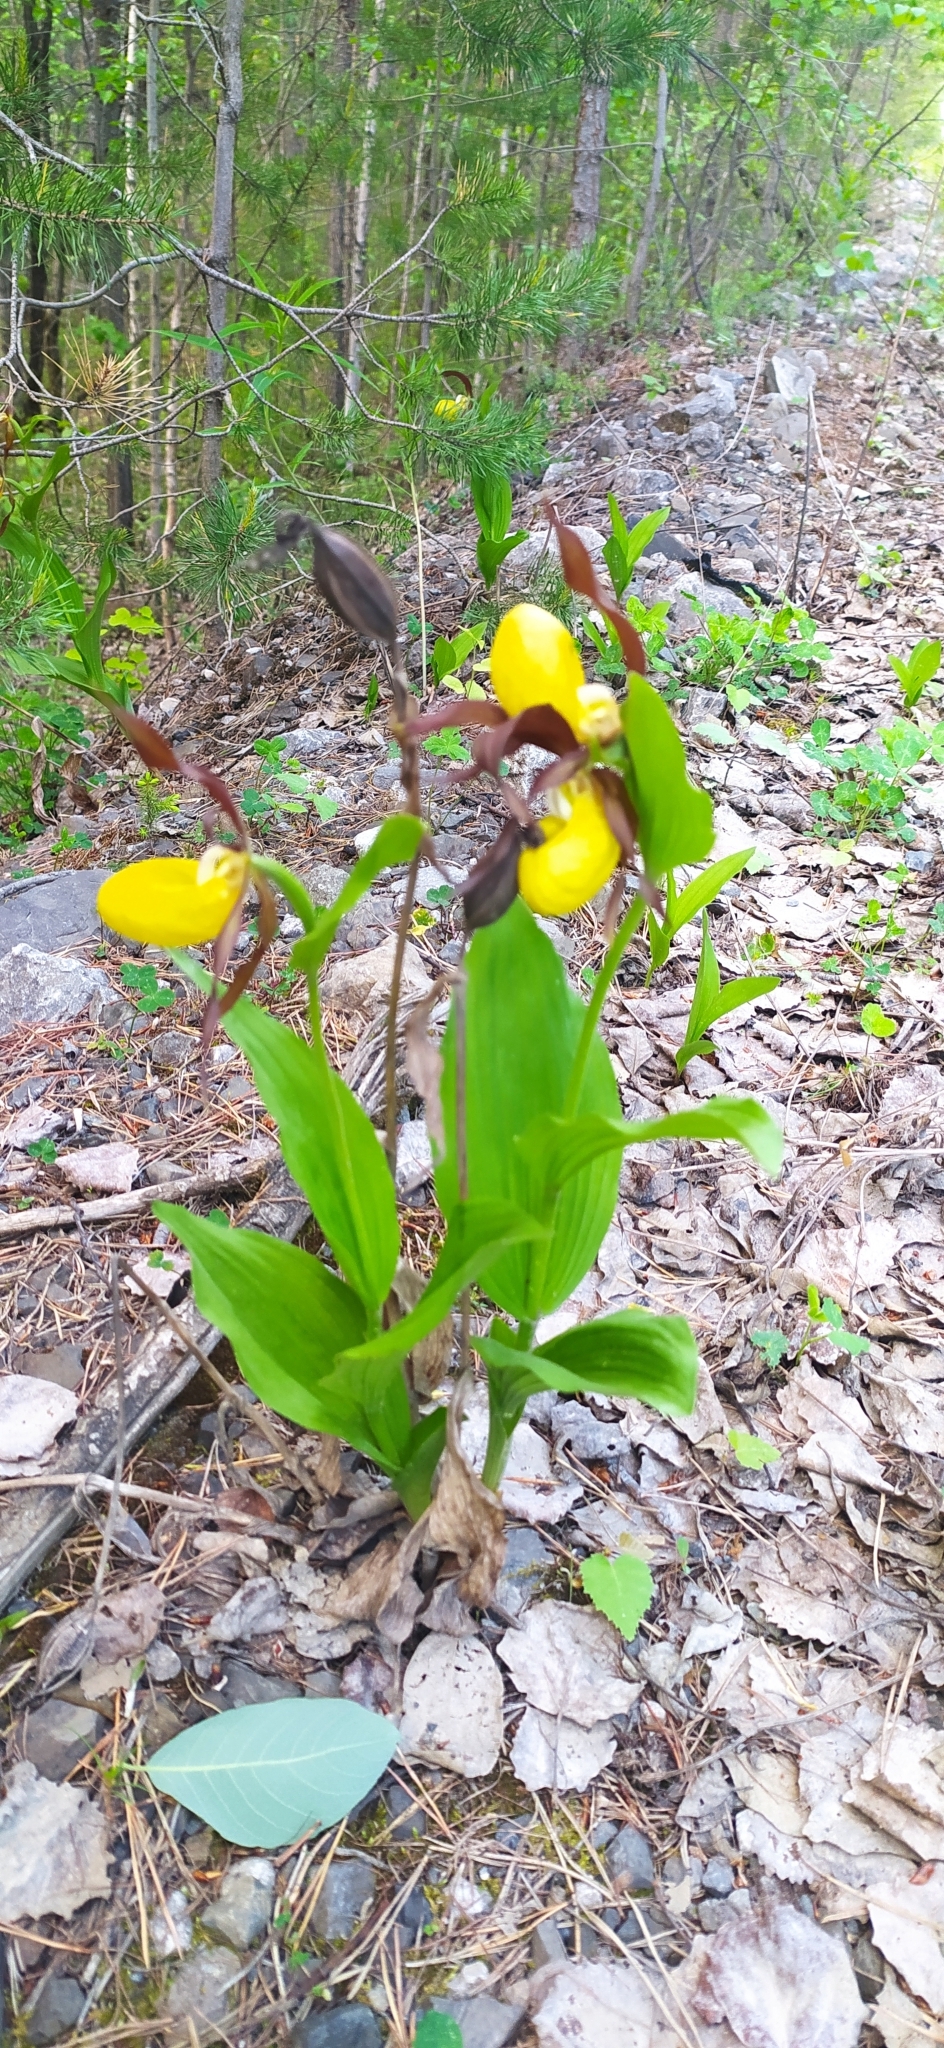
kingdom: Plantae
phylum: Tracheophyta
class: Liliopsida
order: Asparagales
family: Orchidaceae
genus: Cypripedium
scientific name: Cypripedium calceolus
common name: Lady's-slipper
